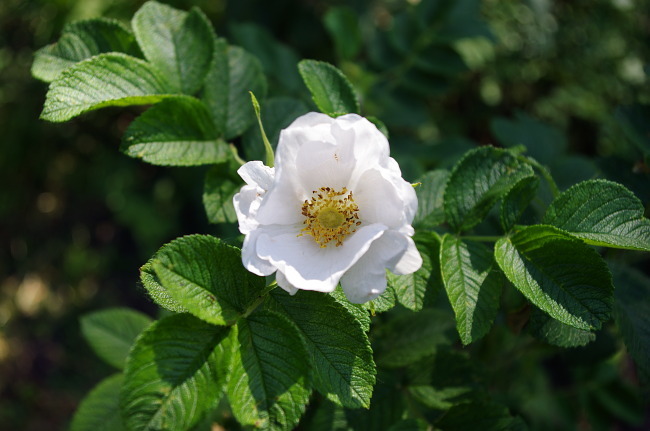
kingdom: Plantae
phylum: Tracheophyta
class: Magnoliopsida
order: Rosales
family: Rosaceae
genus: Rosa
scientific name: Rosa rugosa
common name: Japanese rose
